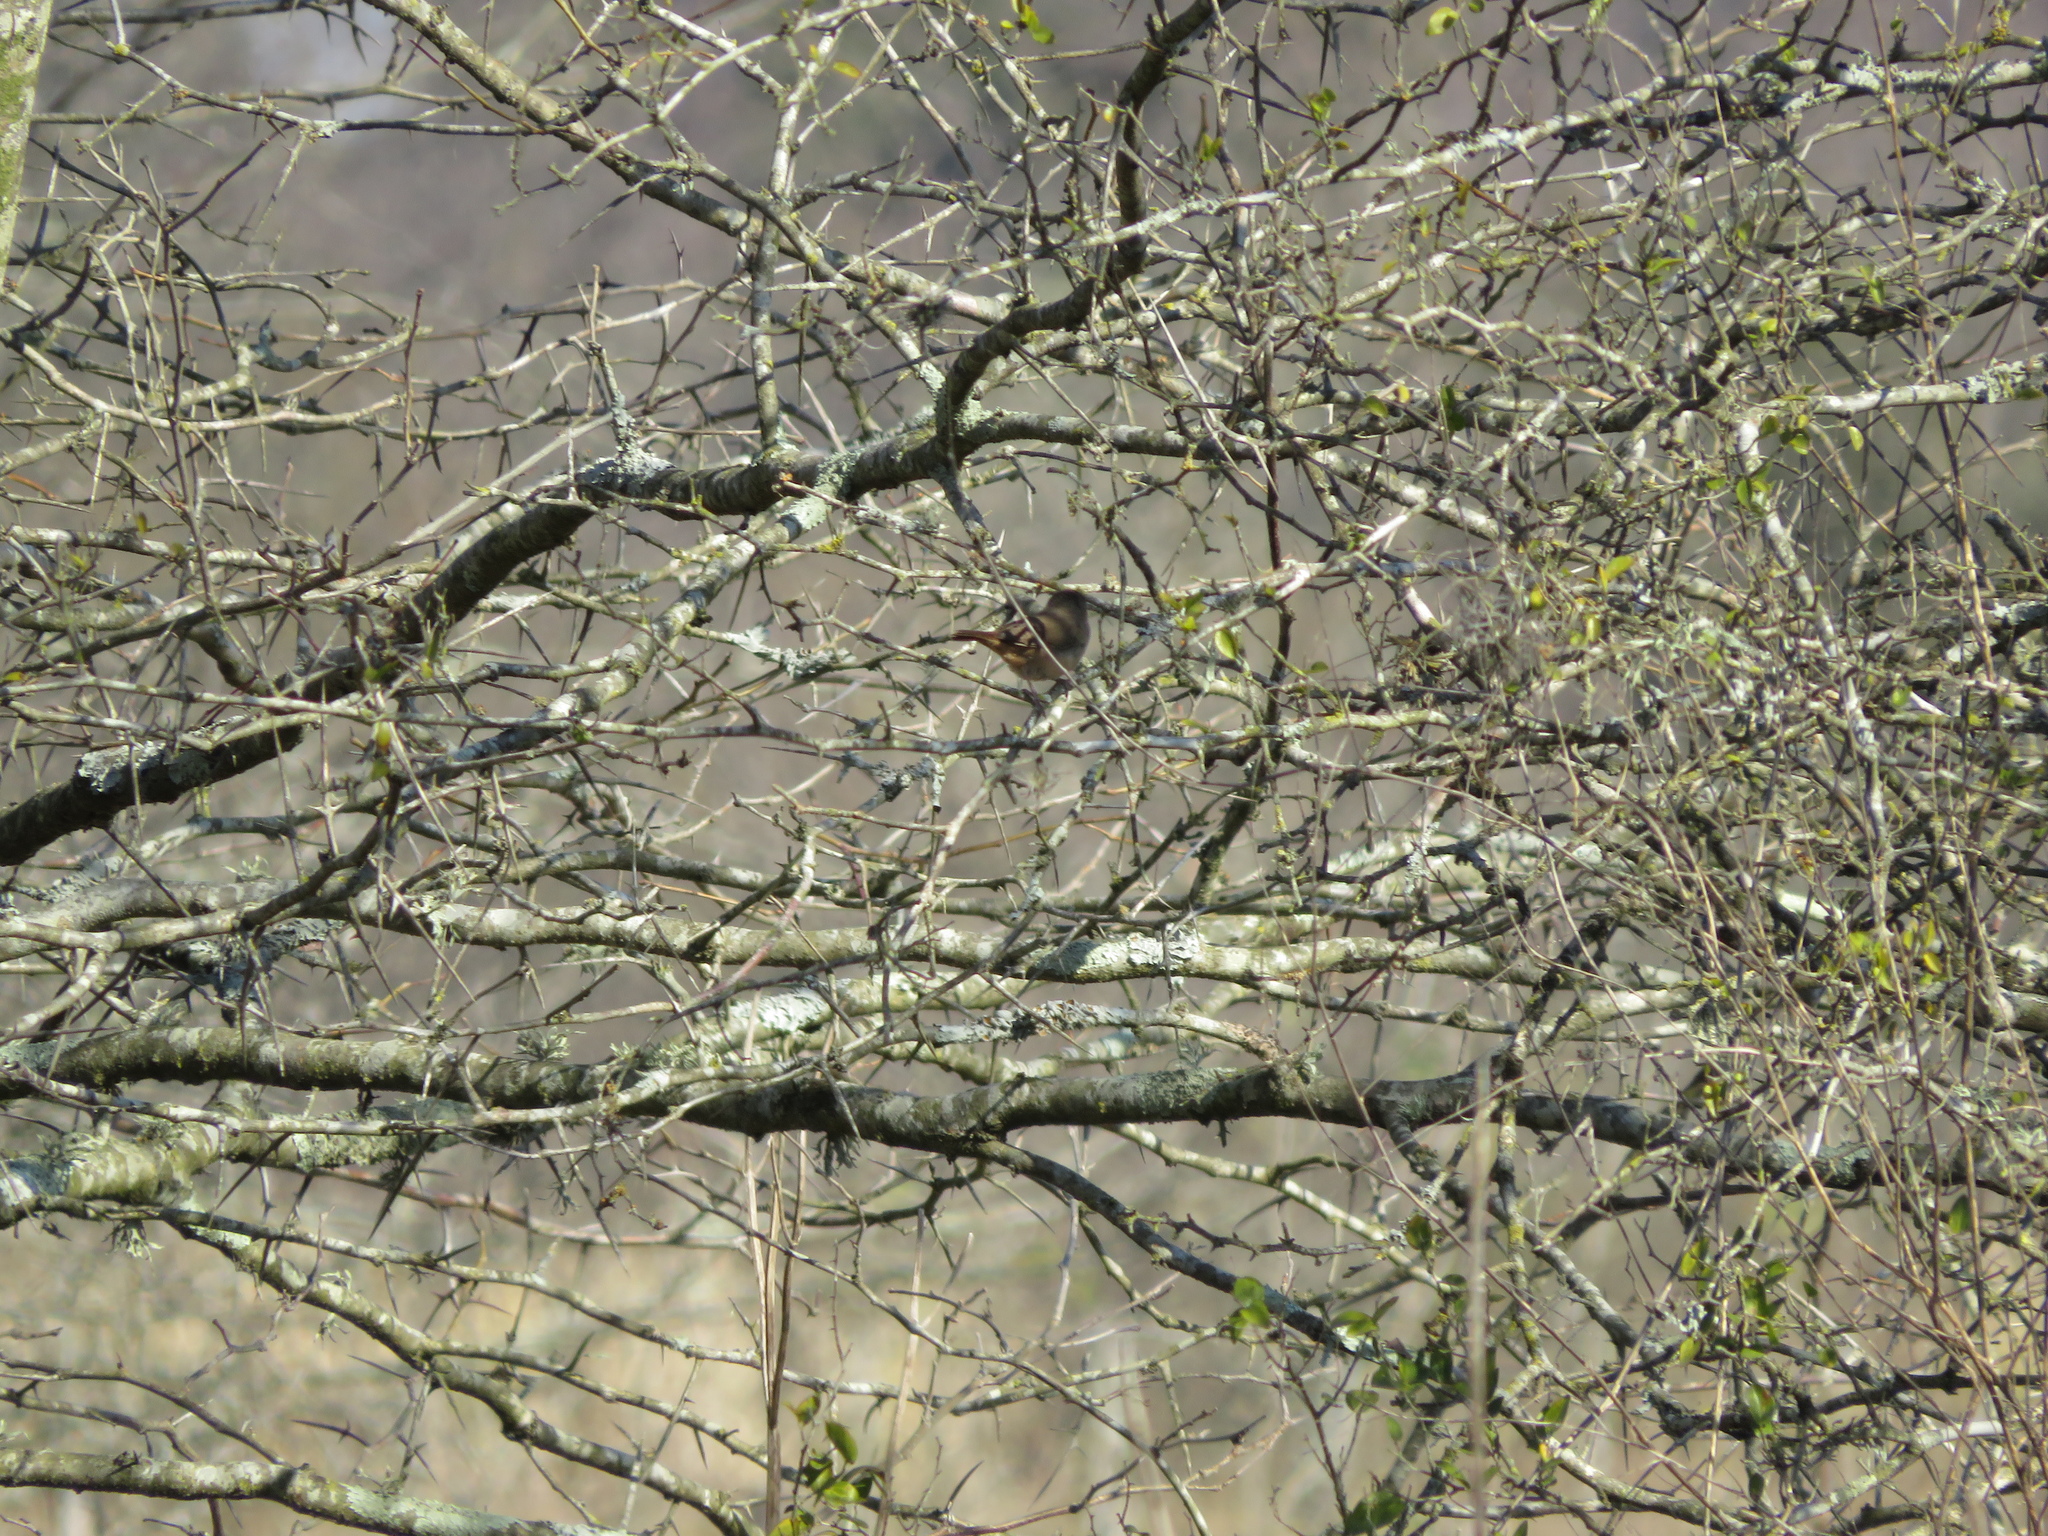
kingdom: Animalia
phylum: Chordata
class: Aves
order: Passeriformes
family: Troglodytidae
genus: Troglodytes
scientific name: Troglodytes aedon
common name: House wren
